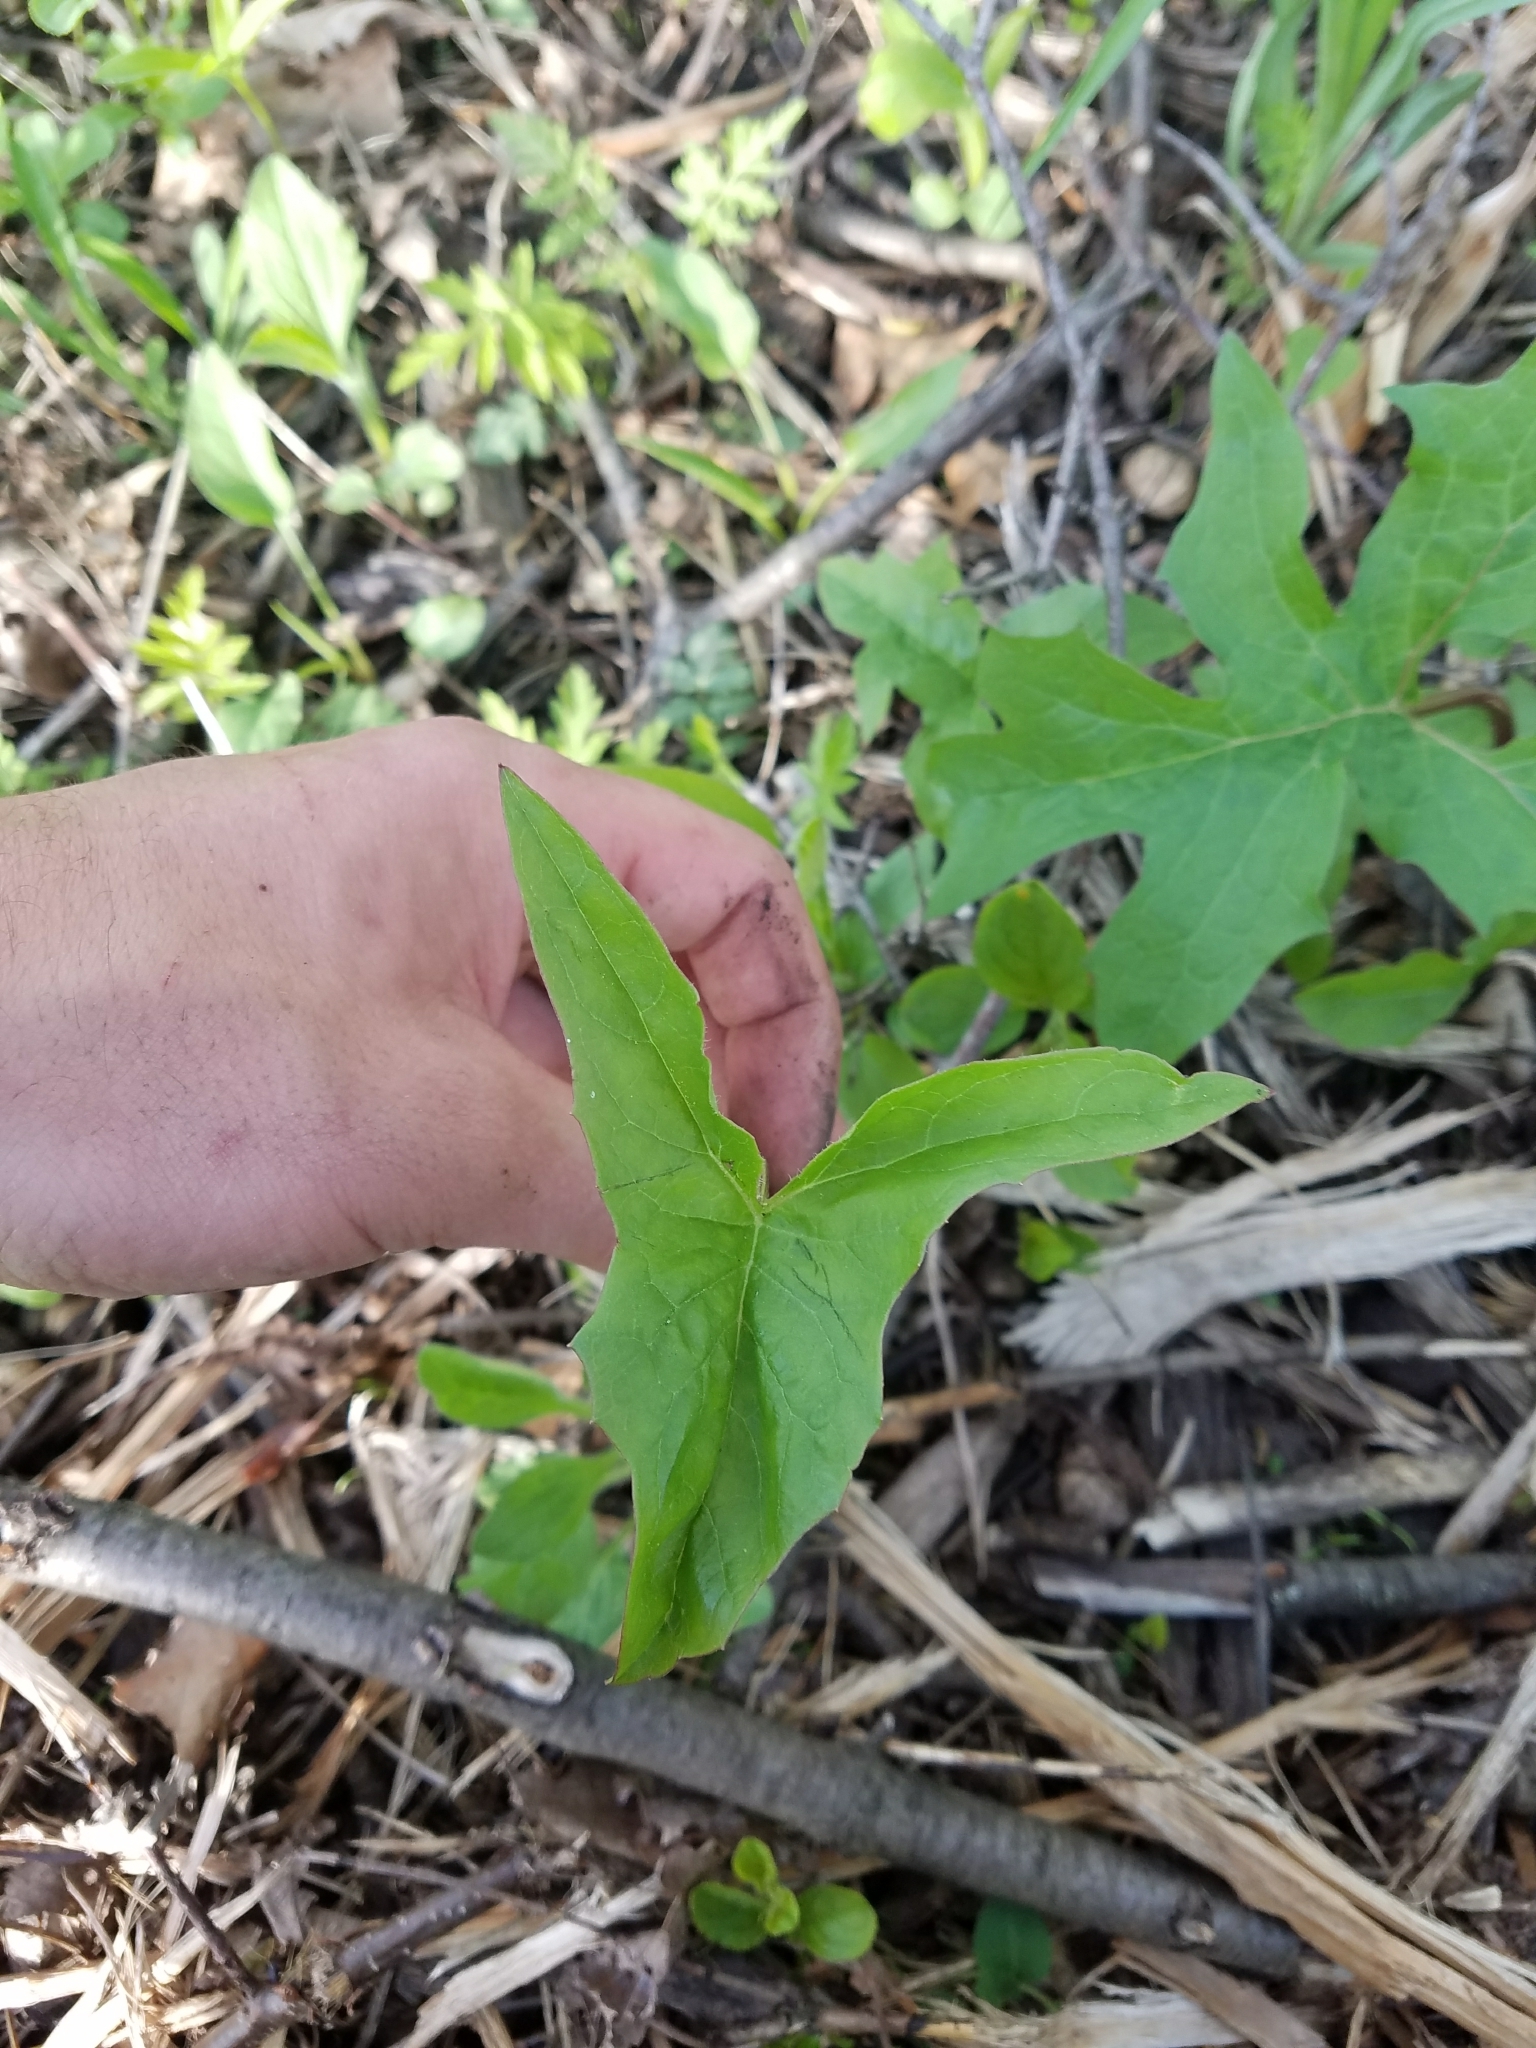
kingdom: Plantae
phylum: Tracheophyta
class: Magnoliopsida
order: Asterales
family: Asteraceae
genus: Nabalus
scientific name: Nabalus albus
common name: White rattlesnakeroot
